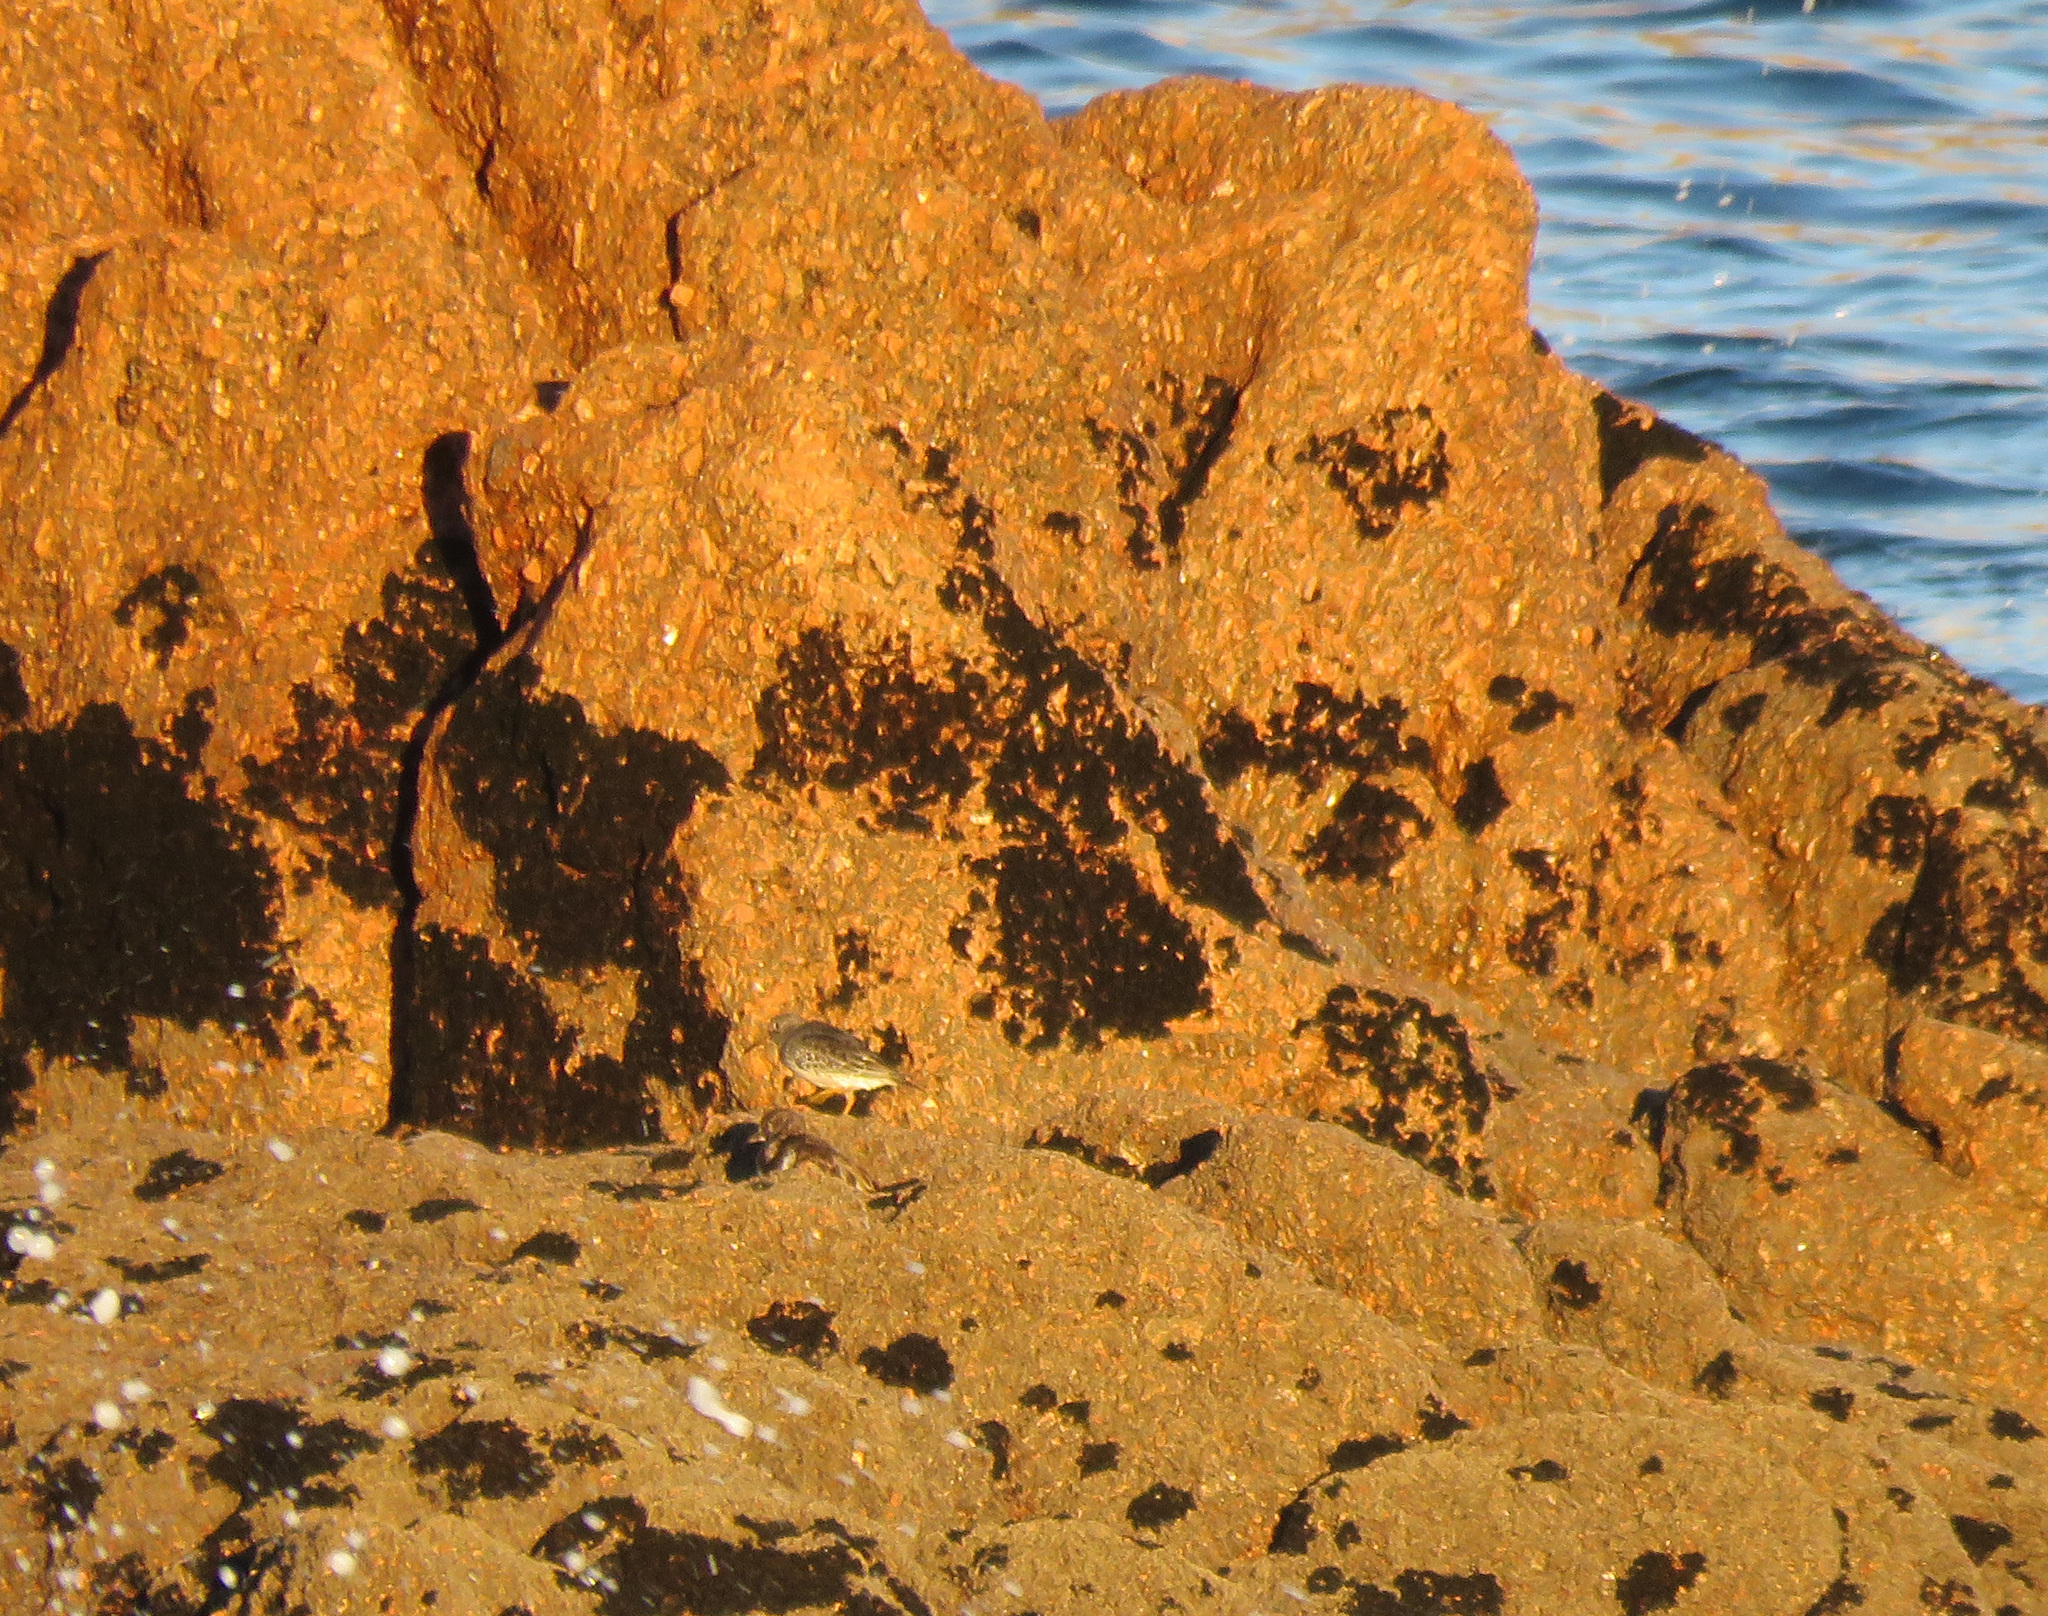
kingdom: Animalia
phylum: Chordata
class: Aves
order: Charadriiformes
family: Scolopacidae
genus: Calidris
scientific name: Calidris maritima
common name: Purple sandpiper
